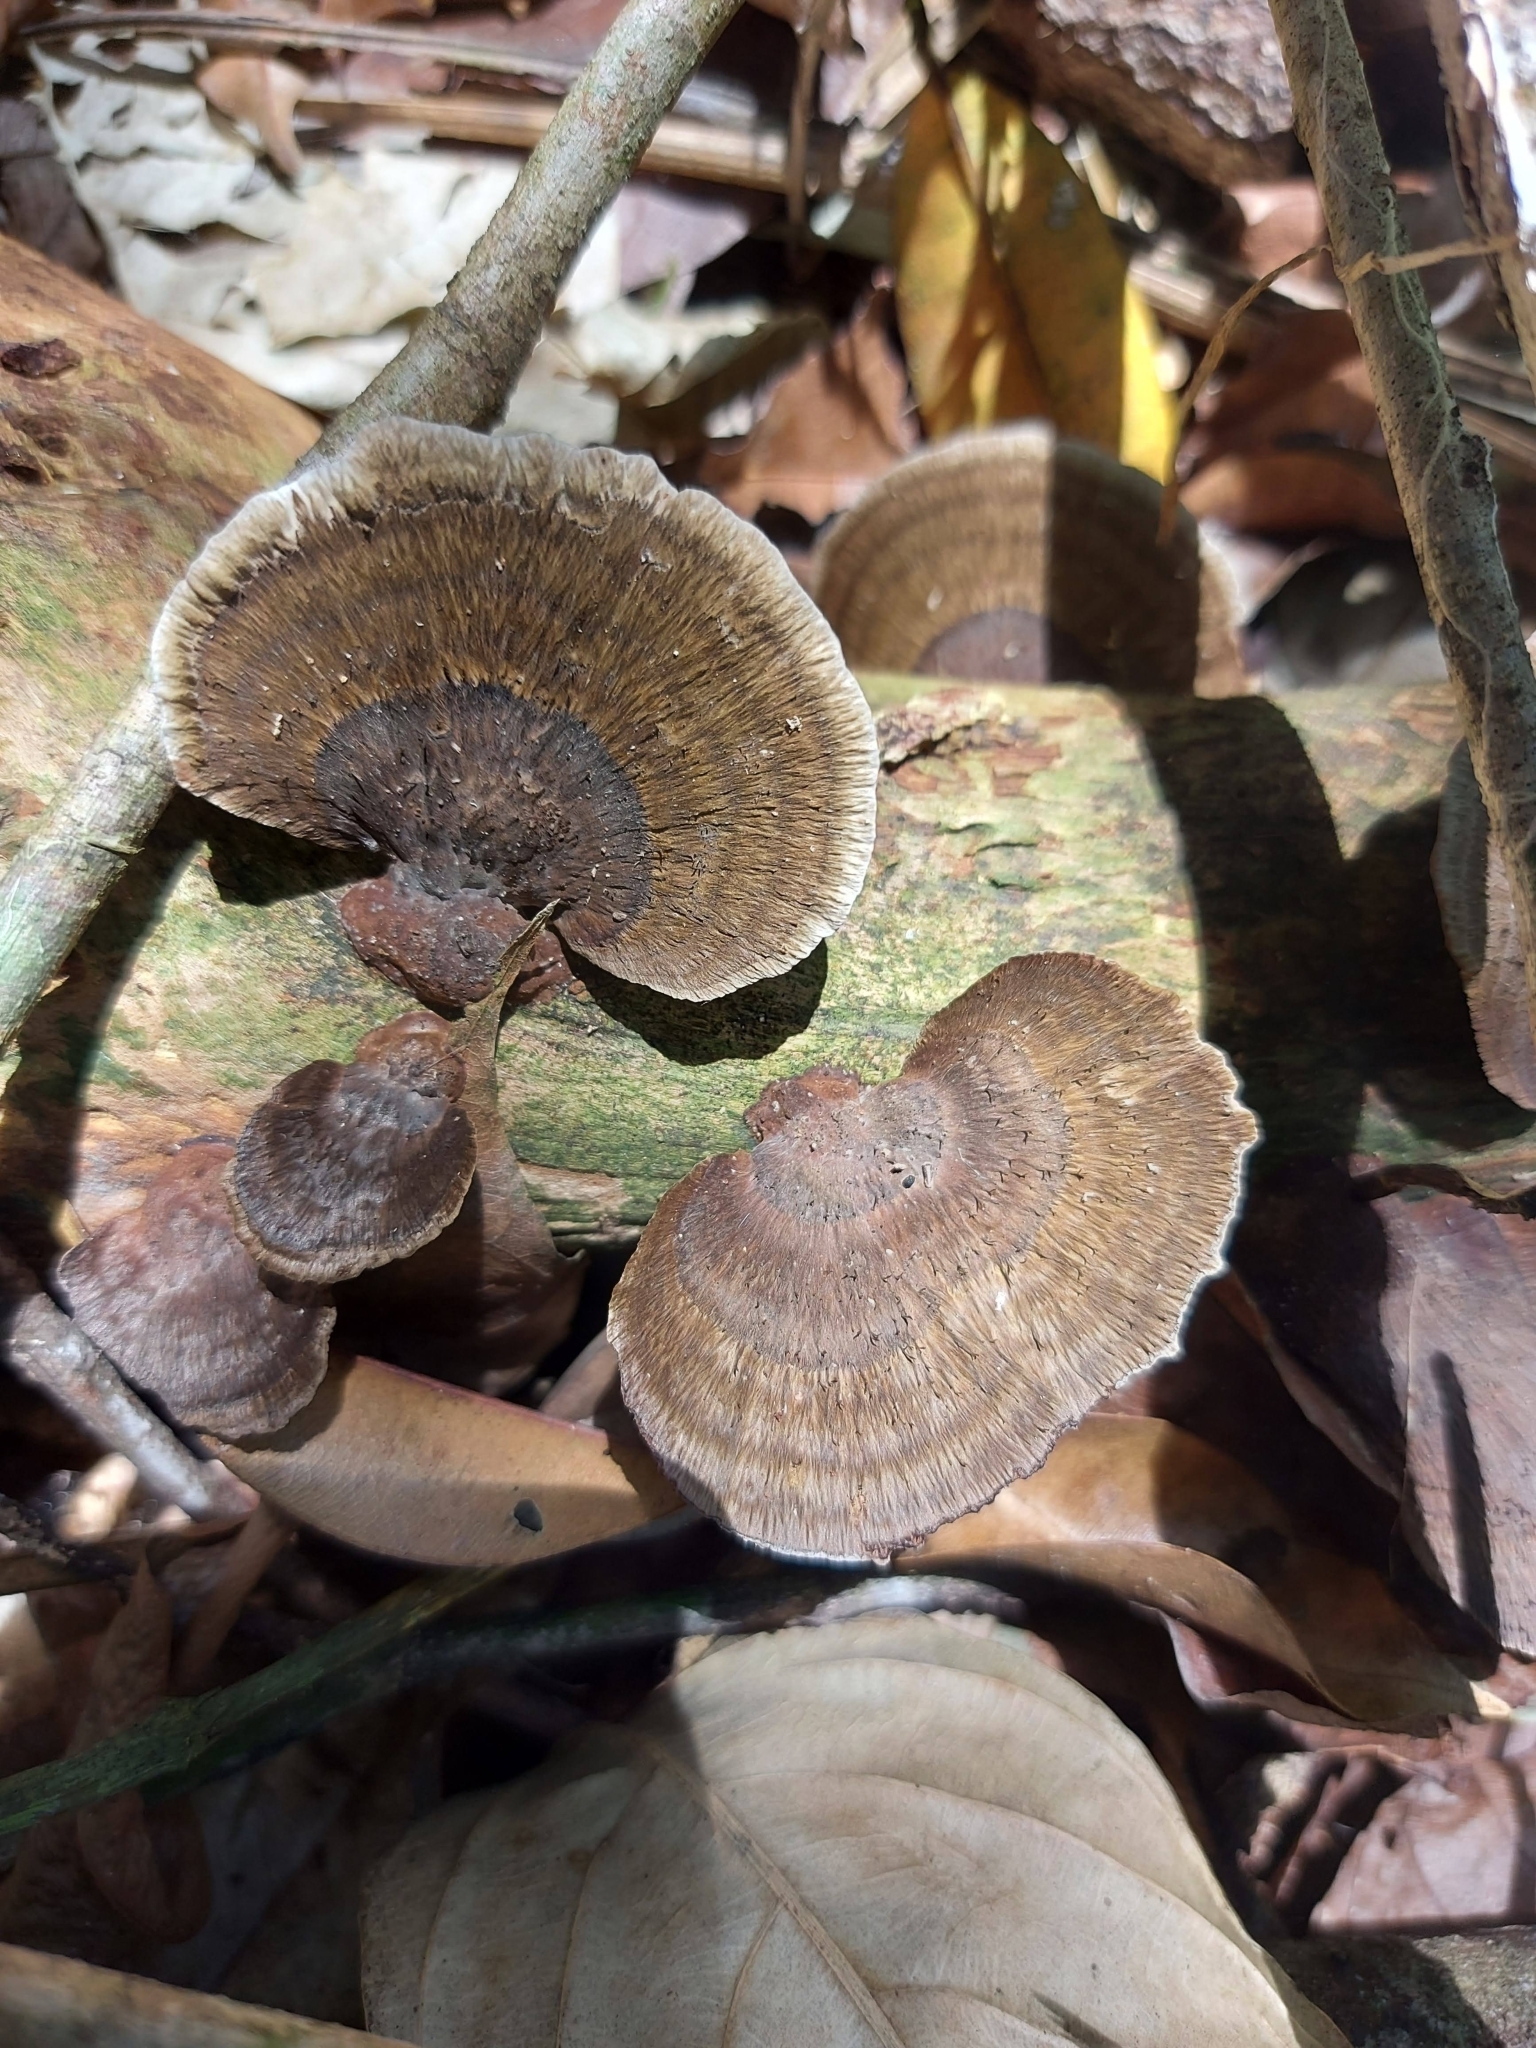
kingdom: Fungi
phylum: Basidiomycota
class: Agaricomycetes
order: Polyporales
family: Cerrenaceae
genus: Cerrena
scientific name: Cerrena hydnoides
